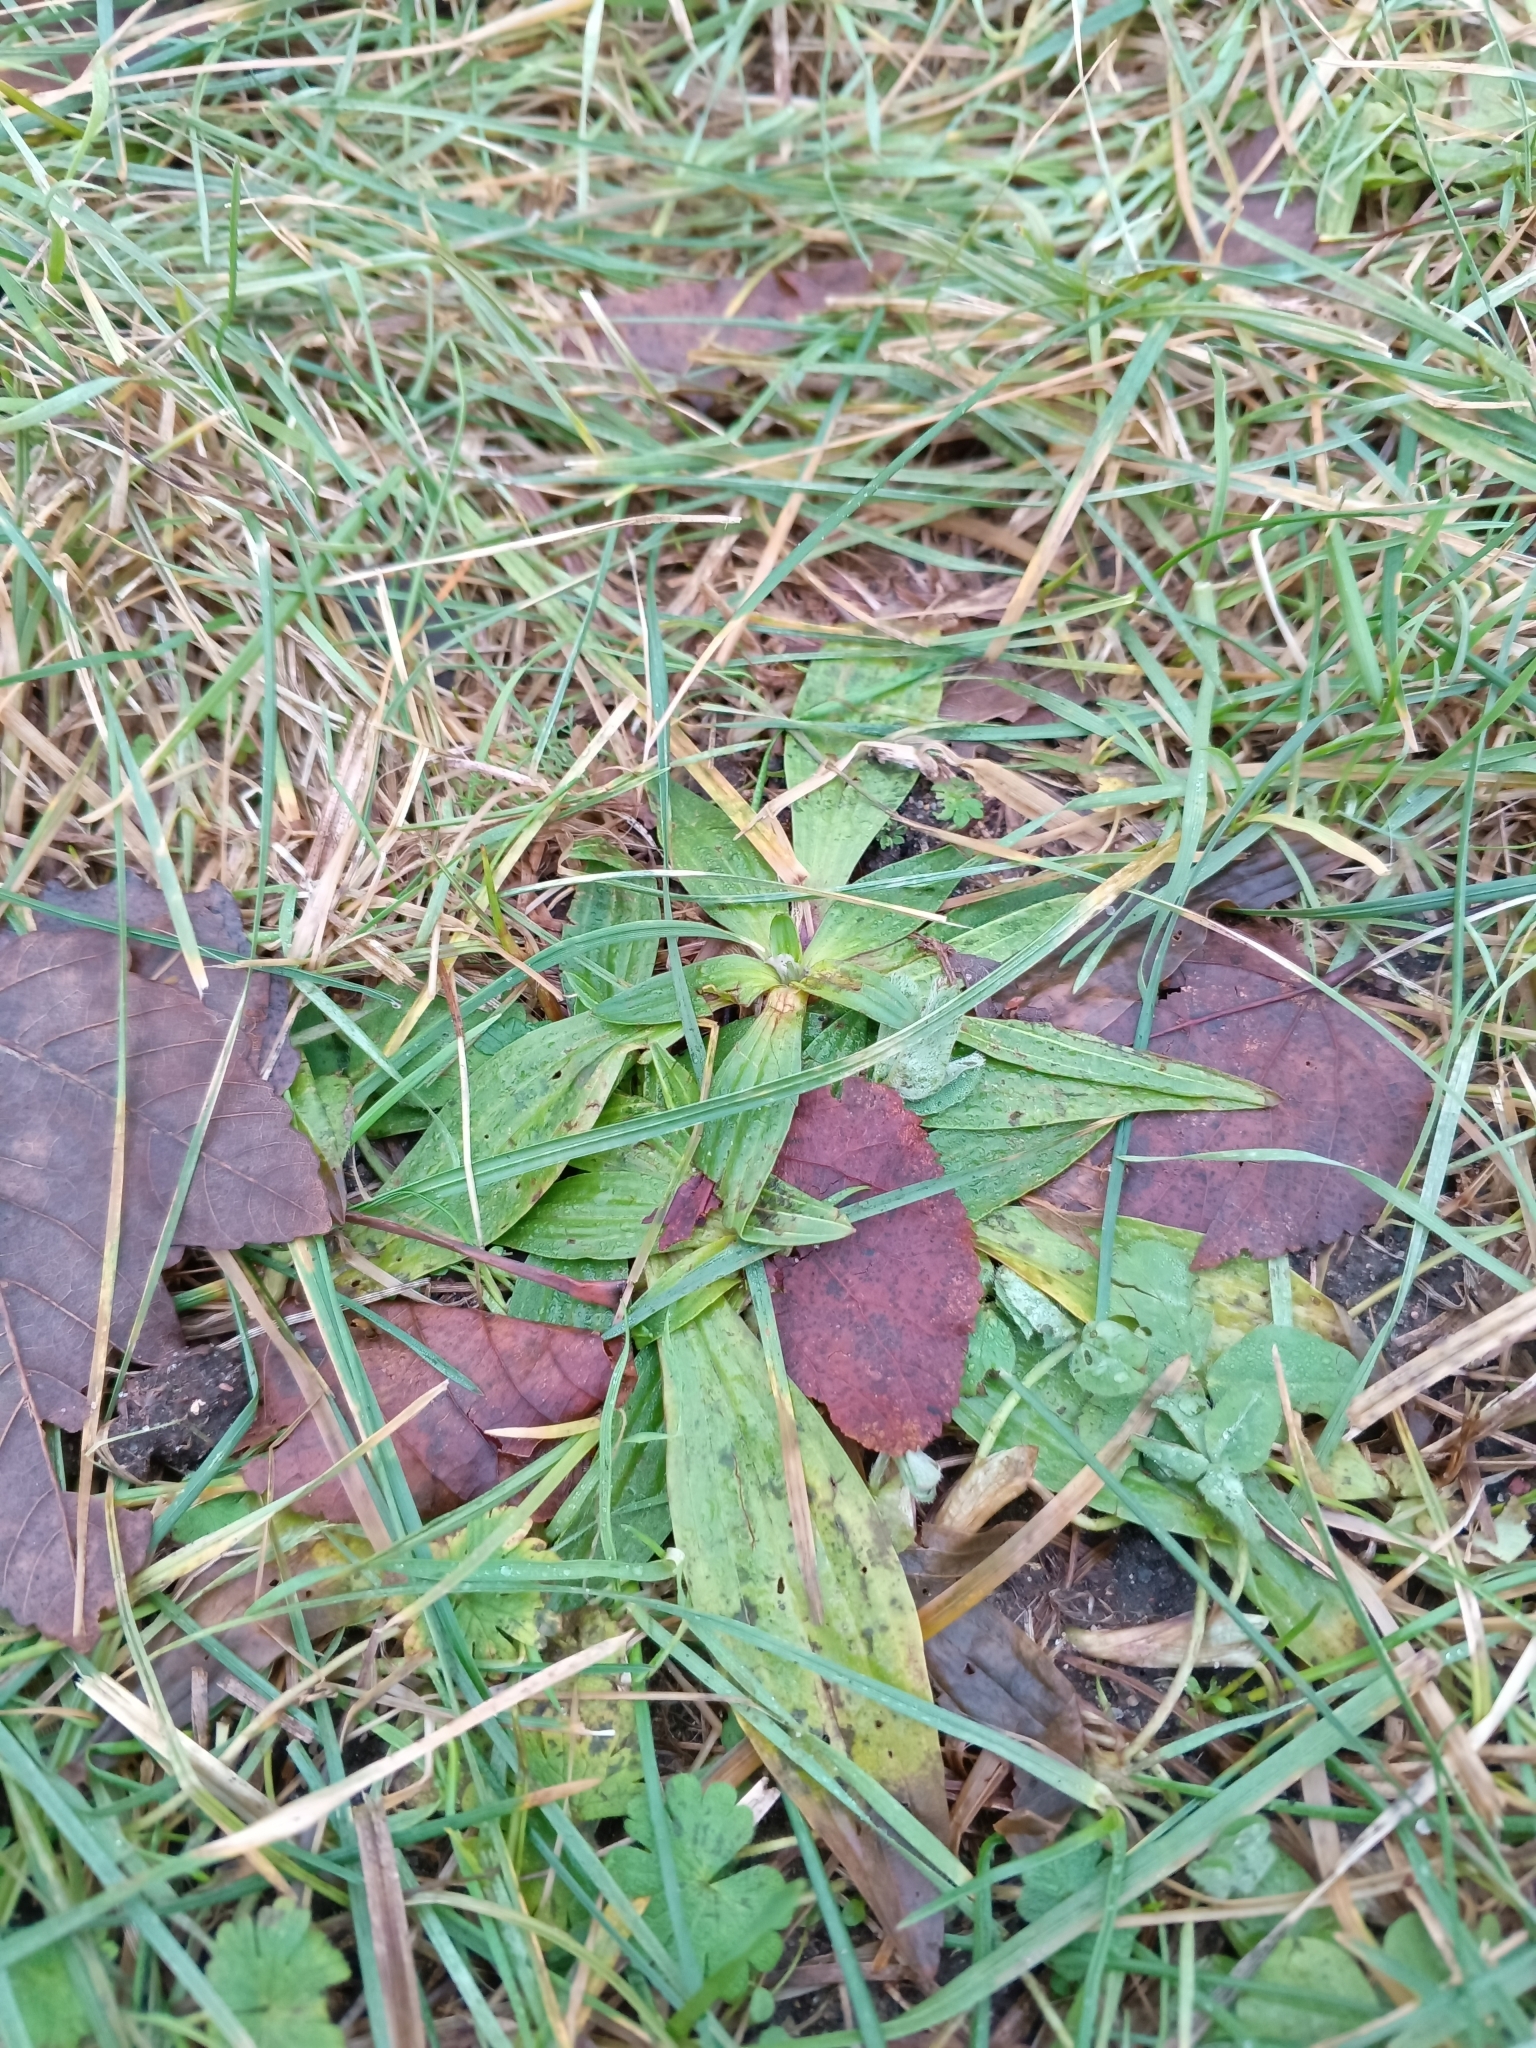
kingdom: Plantae
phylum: Tracheophyta
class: Magnoliopsida
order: Lamiales
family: Plantaginaceae
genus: Plantago
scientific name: Plantago lanceolata
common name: Ribwort plantain
